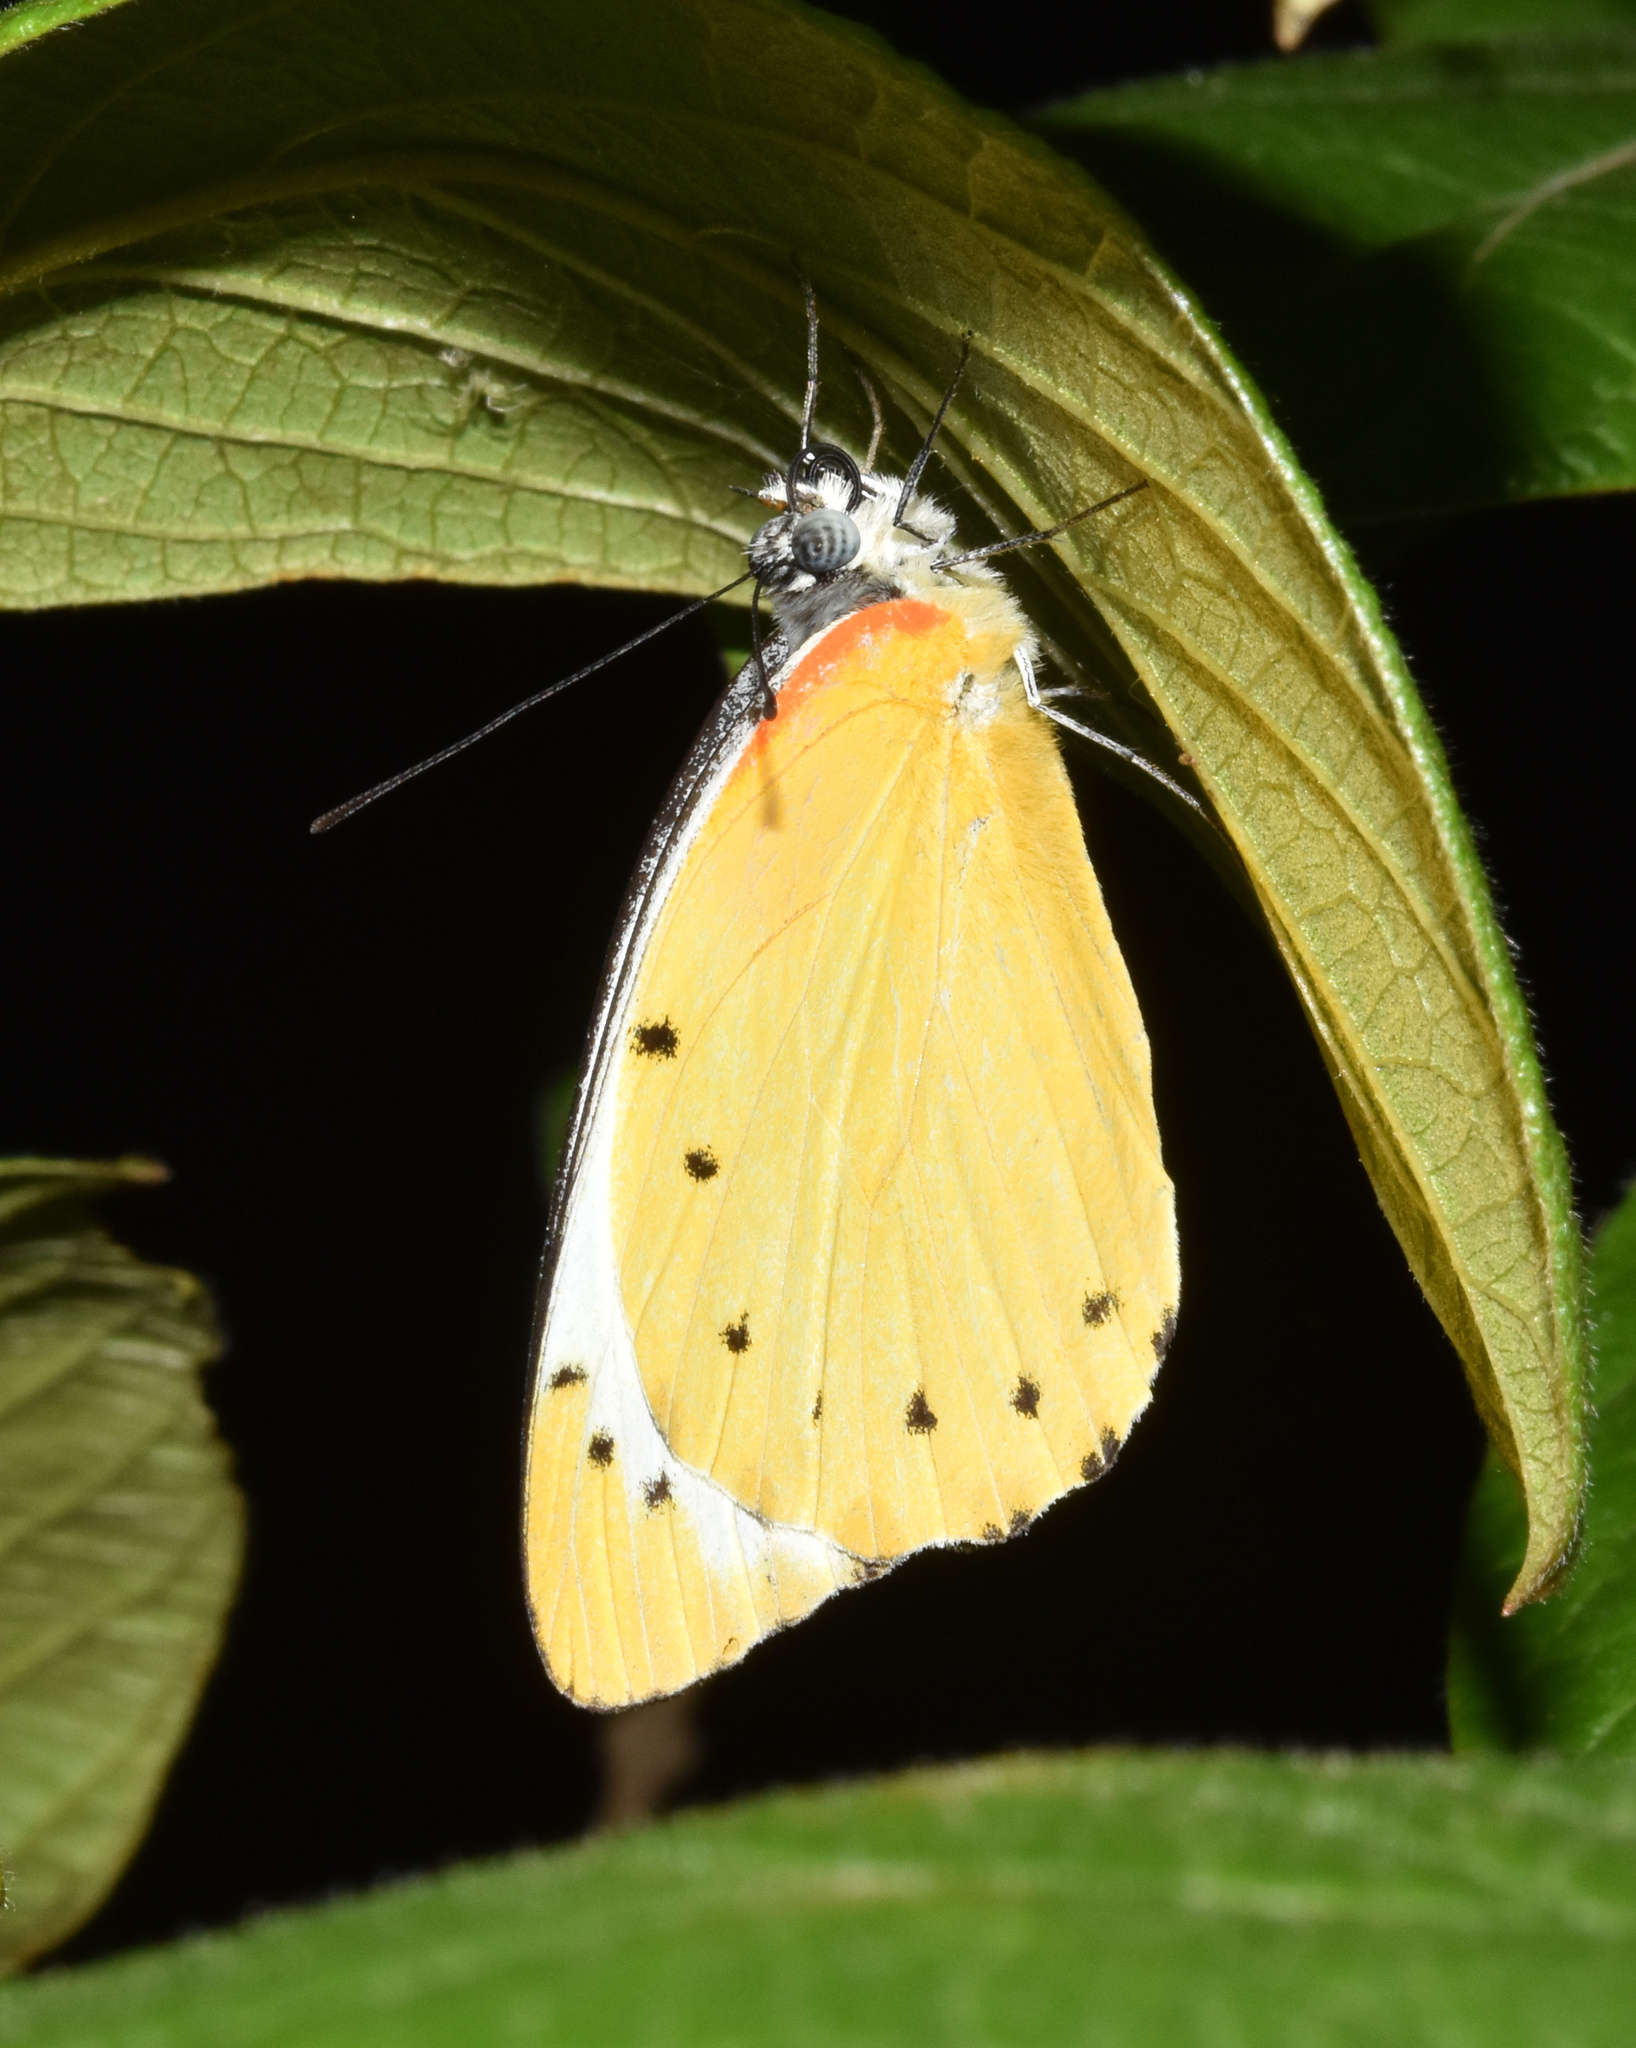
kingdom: Animalia
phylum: Arthropoda
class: Insecta
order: Lepidoptera
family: Pieridae
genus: Belenois
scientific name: Belenois thysa
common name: False dotted border
